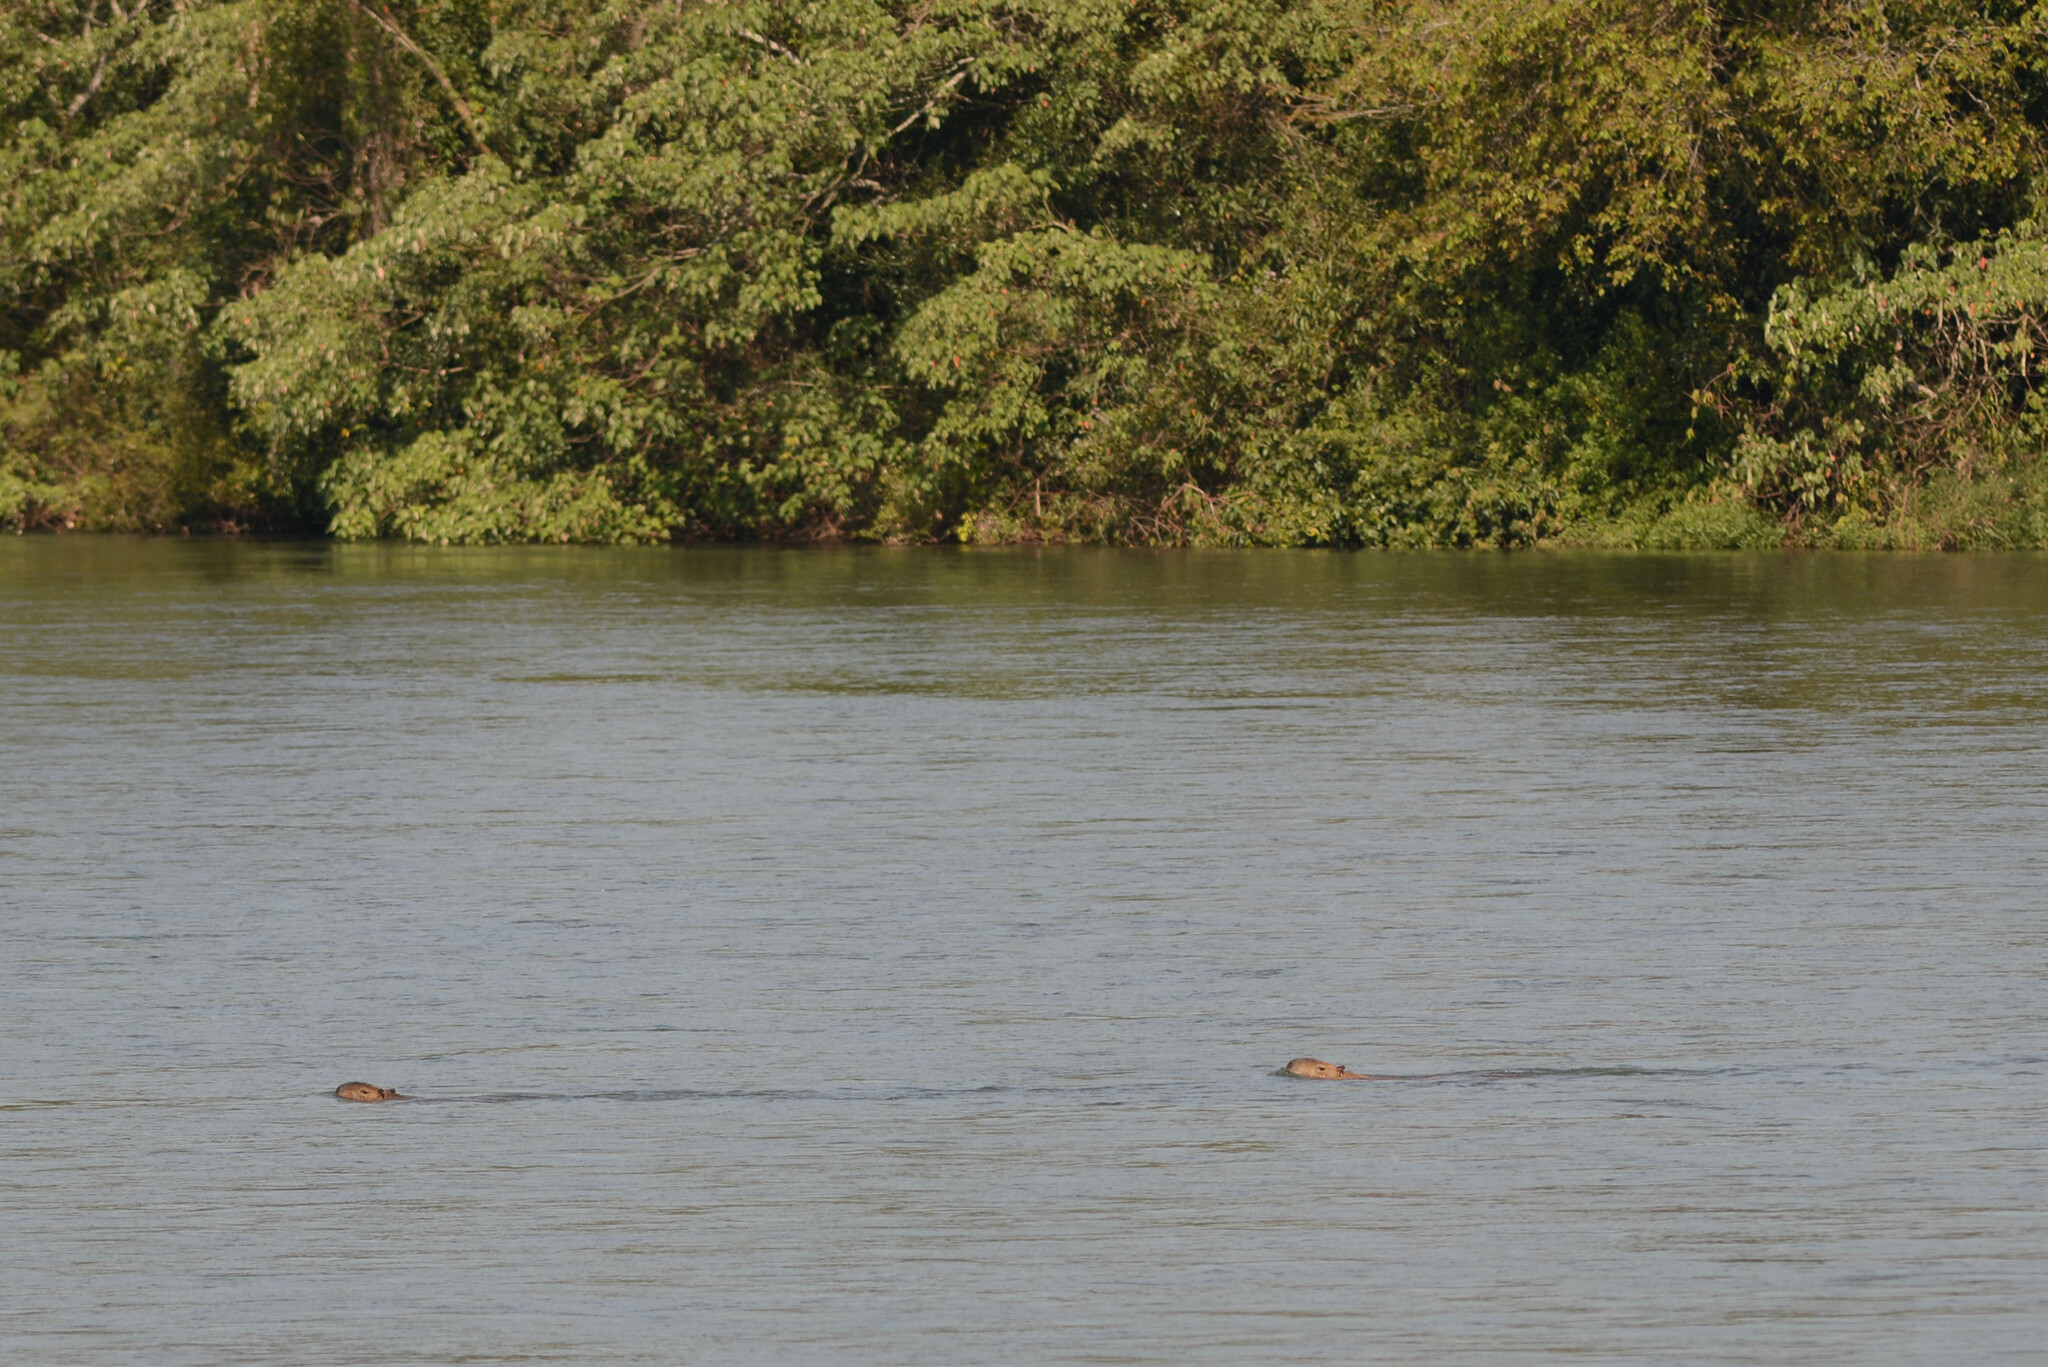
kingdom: Animalia
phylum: Chordata
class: Mammalia
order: Rodentia
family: Caviidae
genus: Hydrochoerus
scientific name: Hydrochoerus hydrochaeris
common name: Capybara
